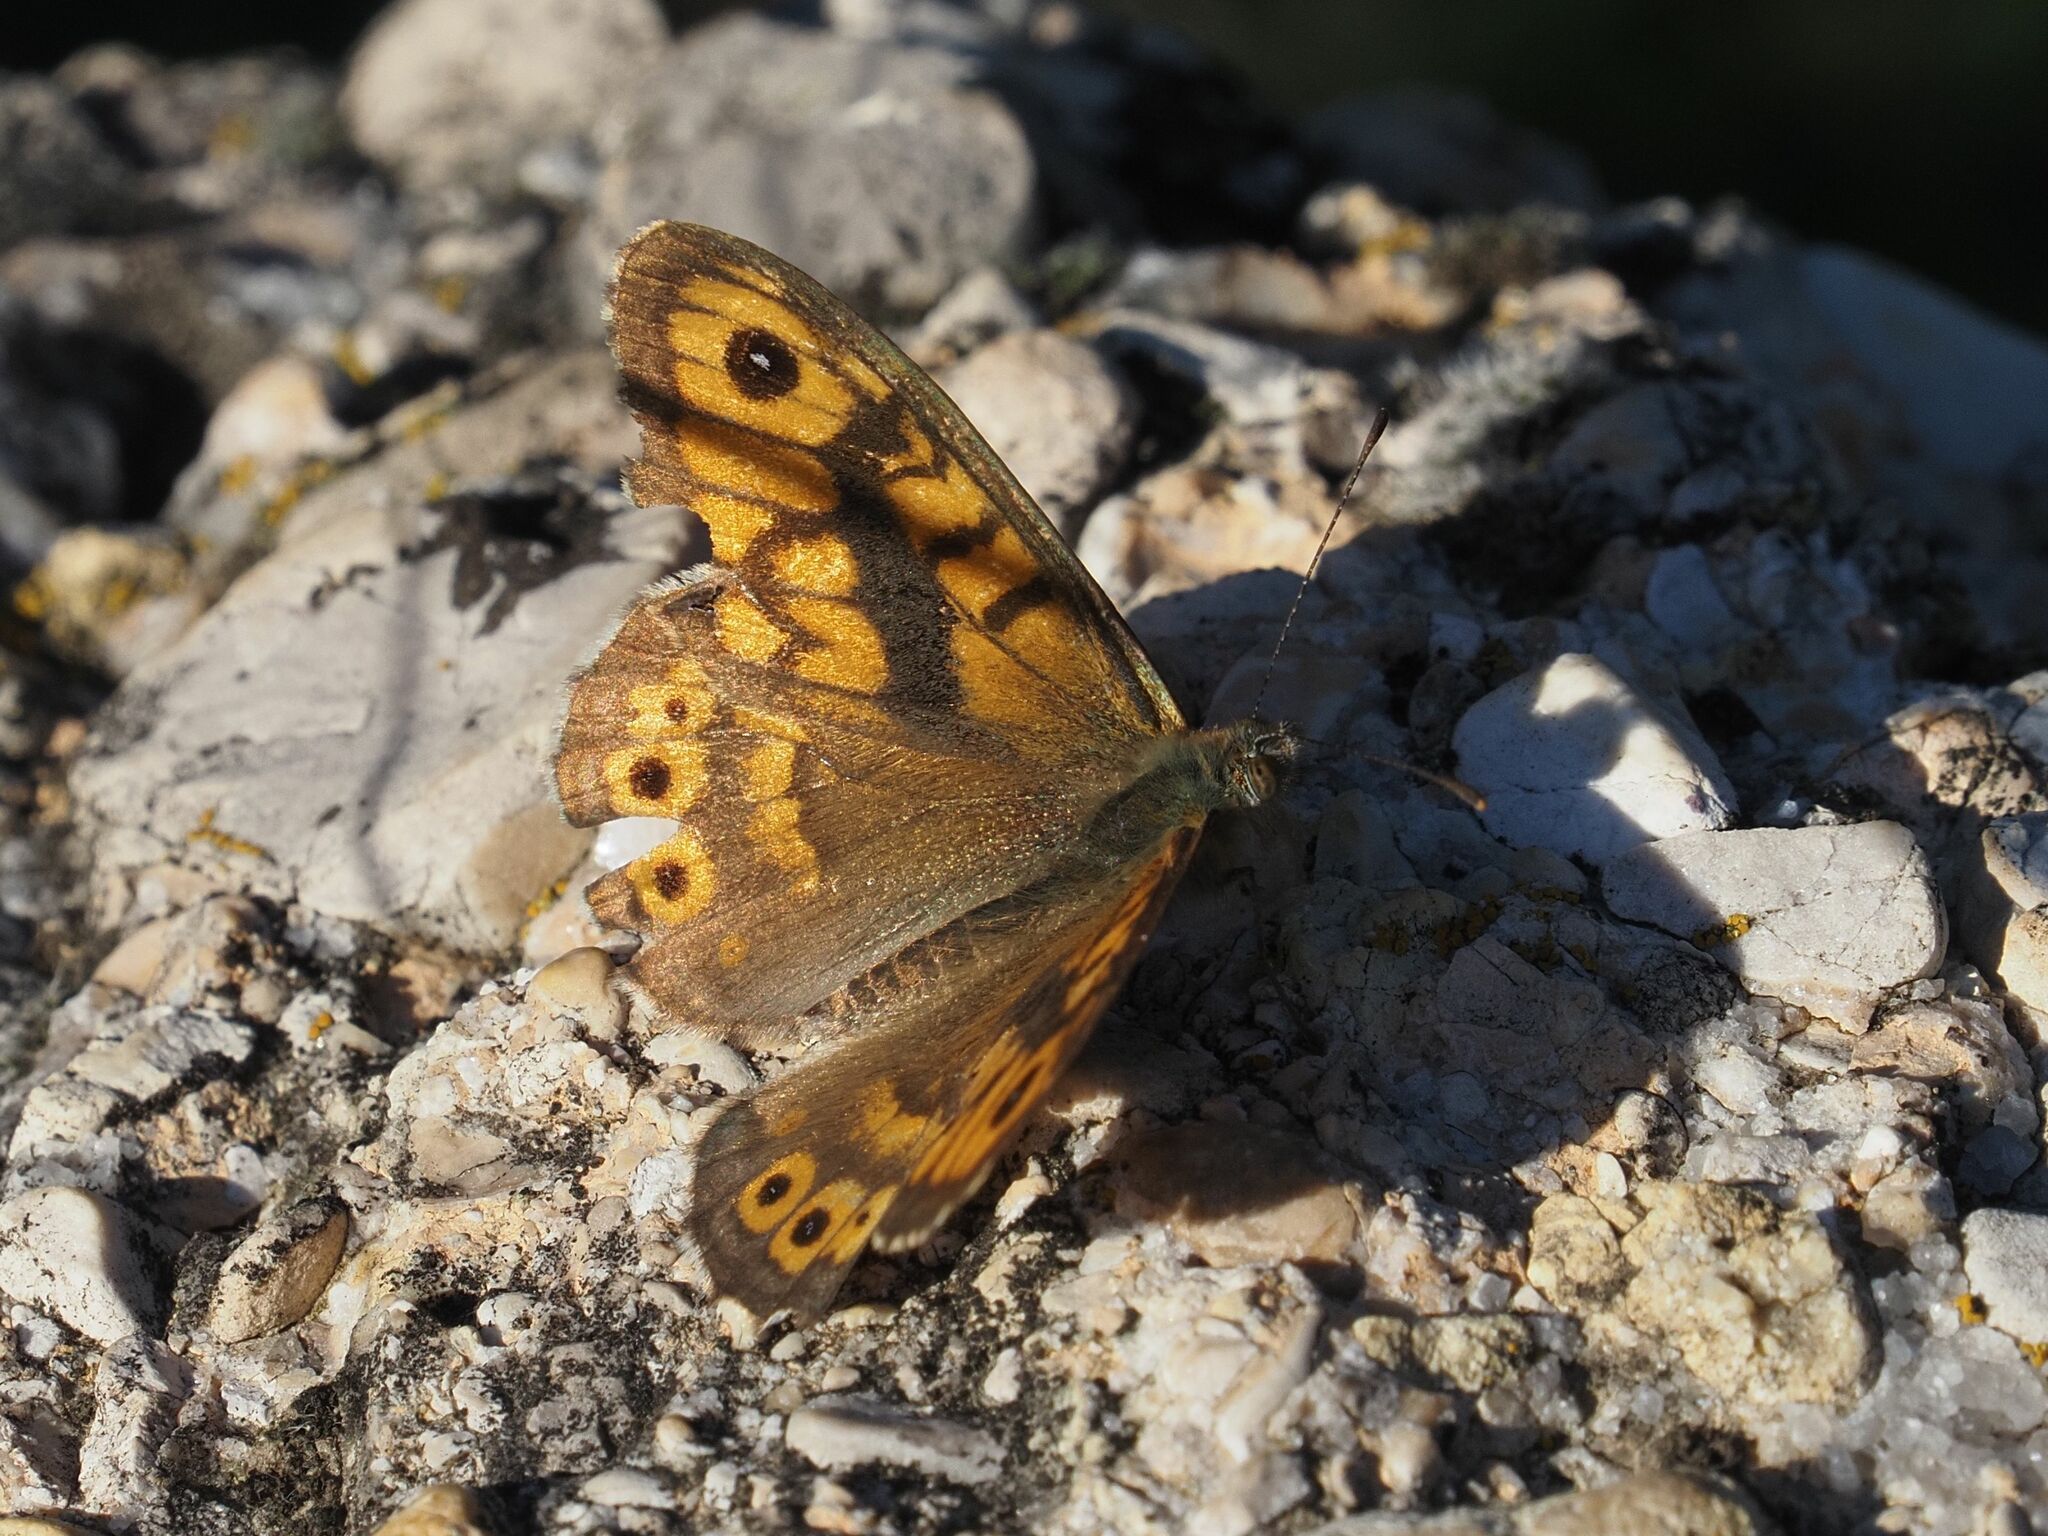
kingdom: Animalia
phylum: Arthropoda
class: Insecta
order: Lepidoptera
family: Nymphalidae
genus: Pararge
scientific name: Pararge Lasiommata megera
